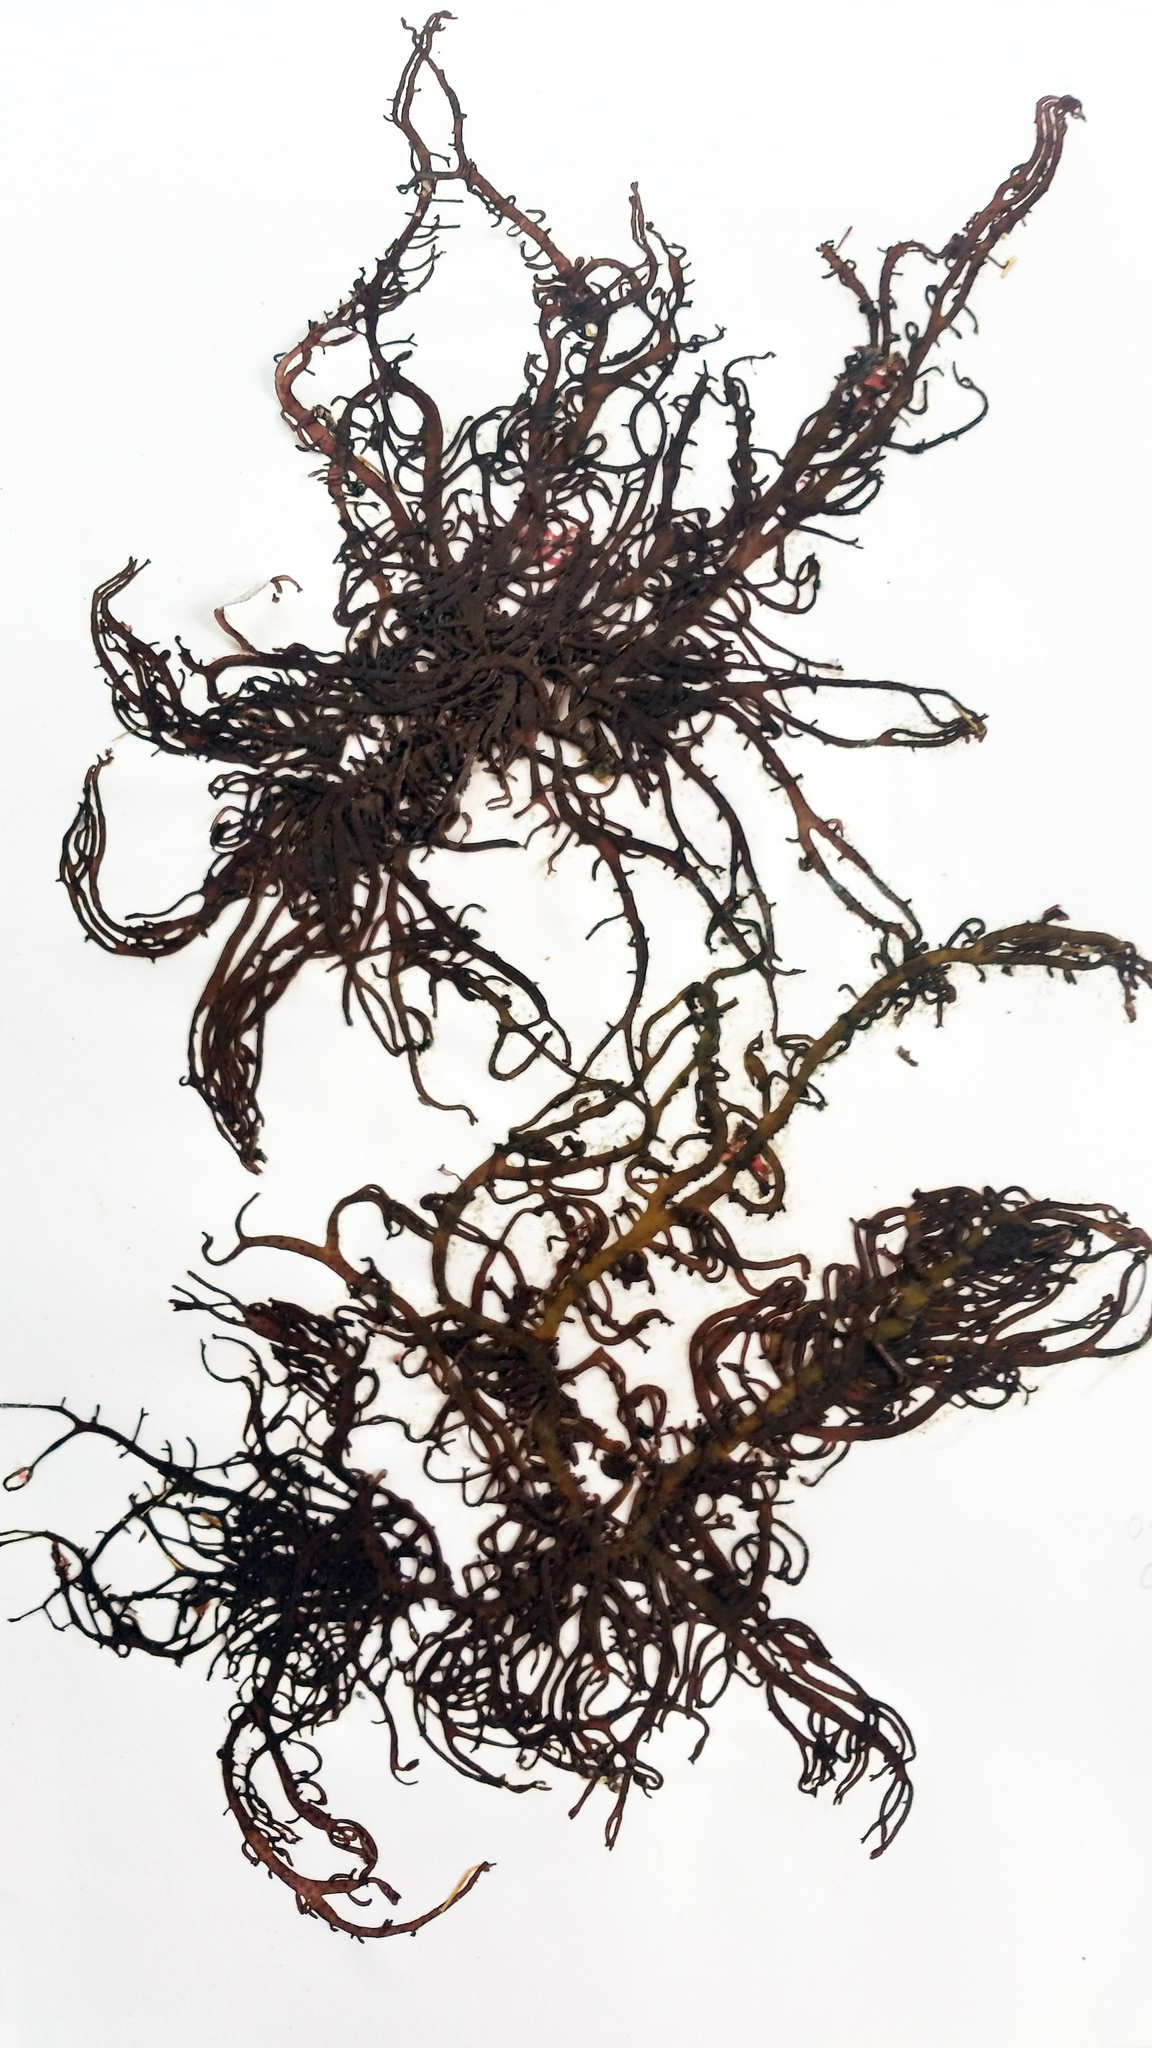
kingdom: Plantae
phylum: Rhodophyta
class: Florideophyceae
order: Nemaliales
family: Liagoraceae
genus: Helminthocladia
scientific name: Helminthocladia australis
